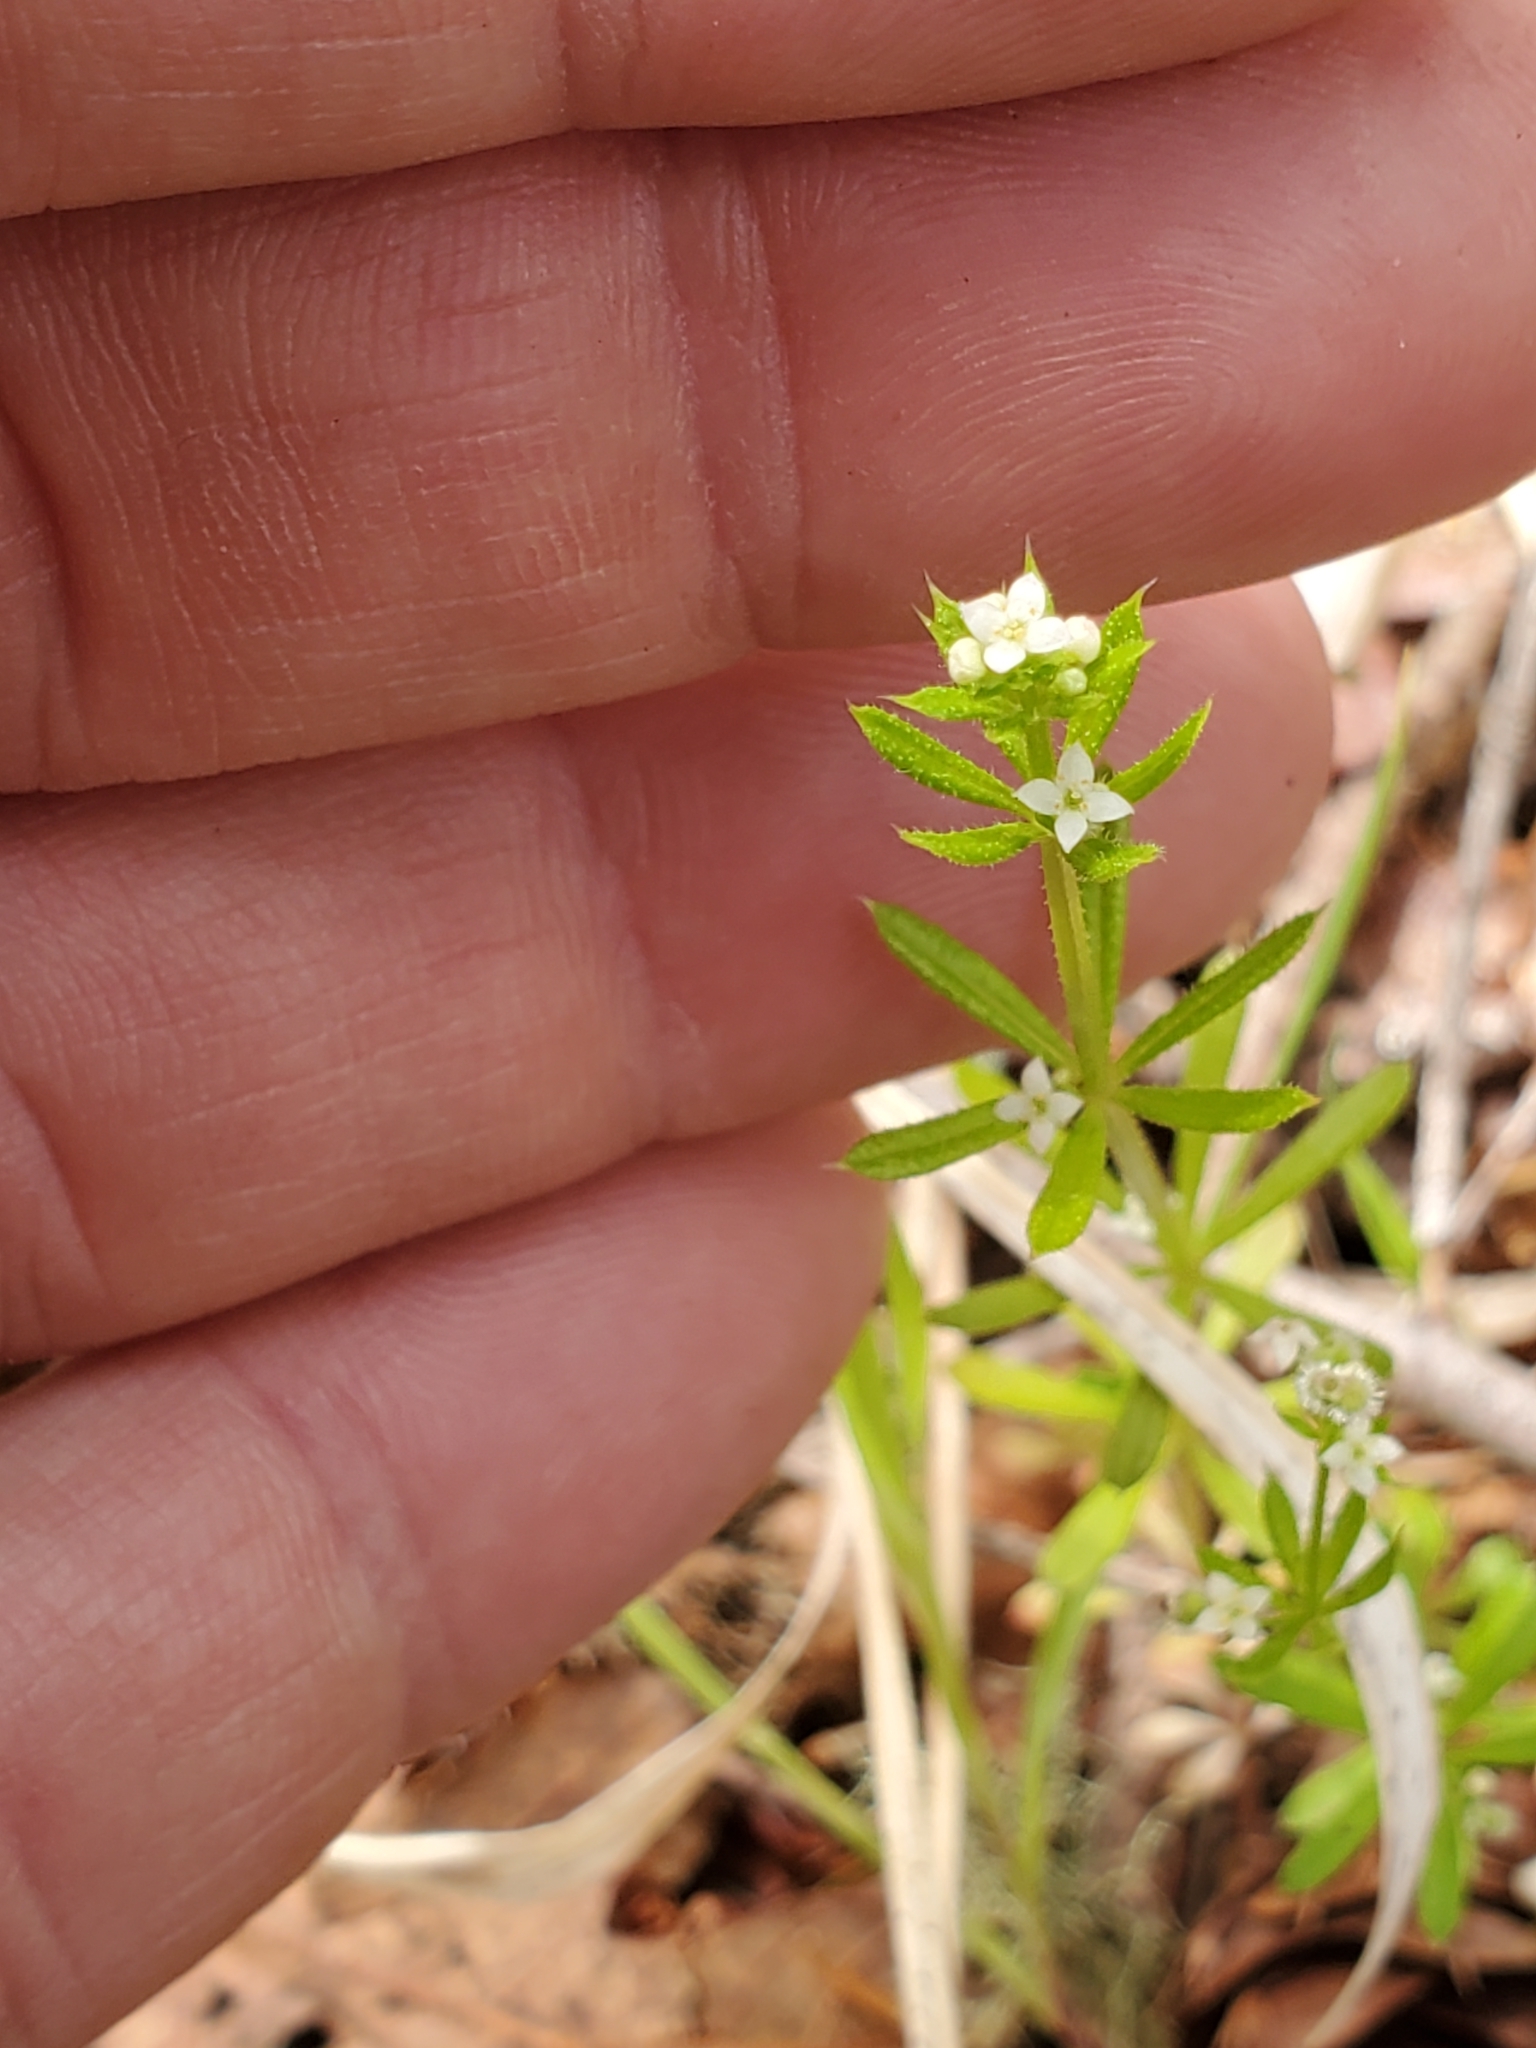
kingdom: Plantae
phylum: Tracheophyta
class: Magnoliopsida
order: Gentianales
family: Rubiaceae
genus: Galium
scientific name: Galium aparine
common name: Cleavers
